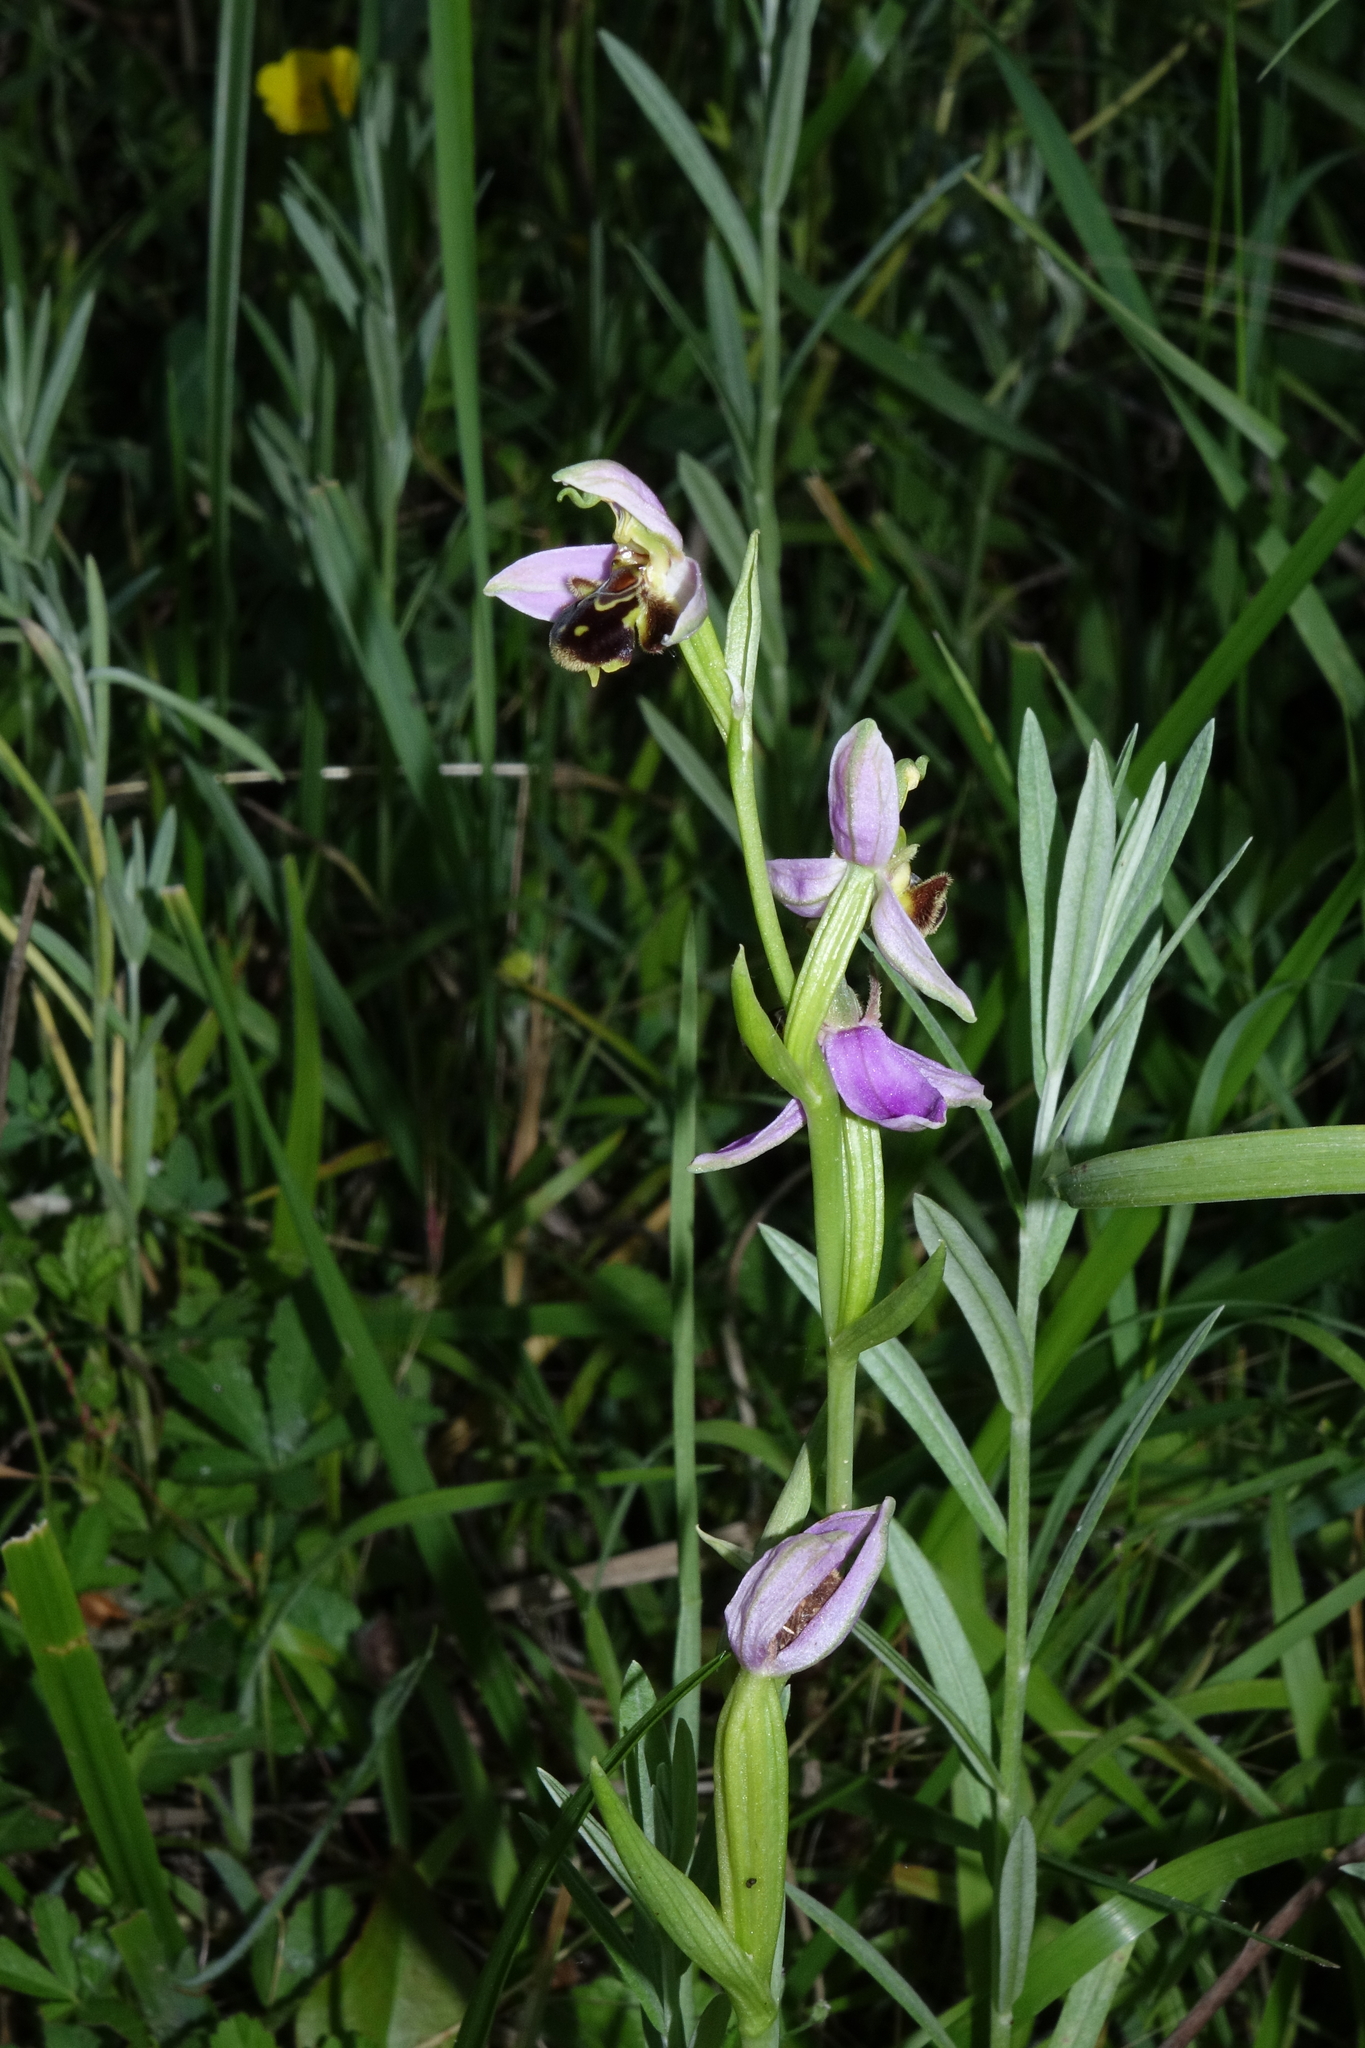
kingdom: Plantae
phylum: Tracheophyta
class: Liliopsida
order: Asparagales
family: Orchidaceae
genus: Ophrys
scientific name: Ophrys apifera
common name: Bee orchid
